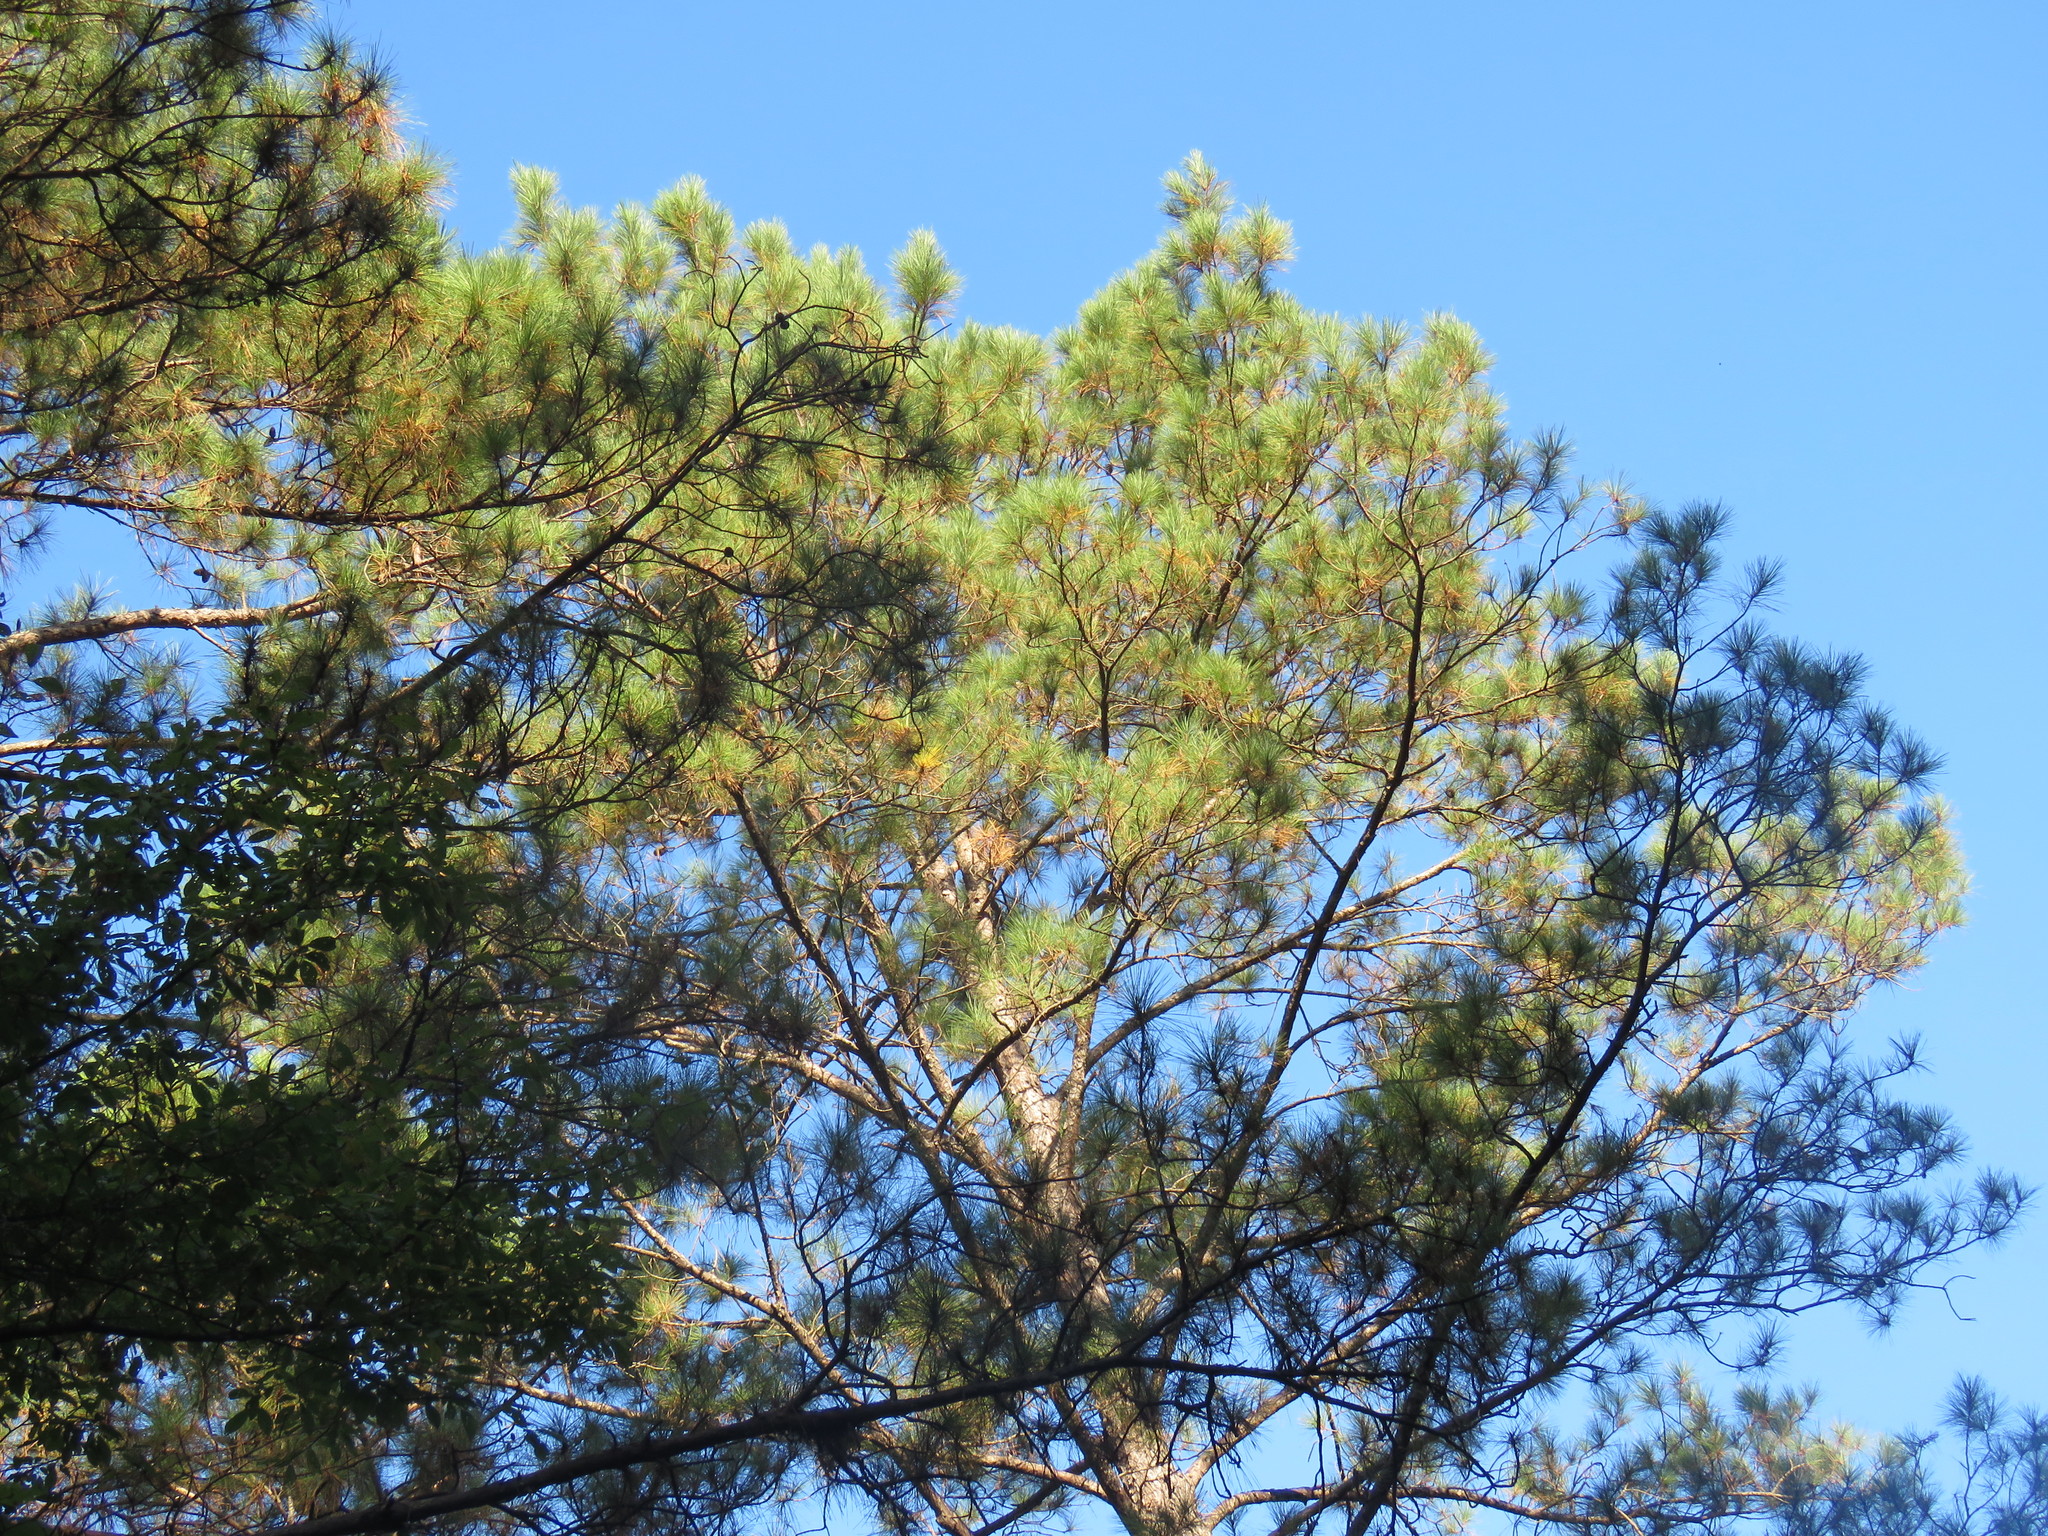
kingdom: Plantae
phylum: Tracheophyta
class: Pinopsida
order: Pinales
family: Pinaceae
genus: Pinus
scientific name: Pinus taeda
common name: Loblolly pine
